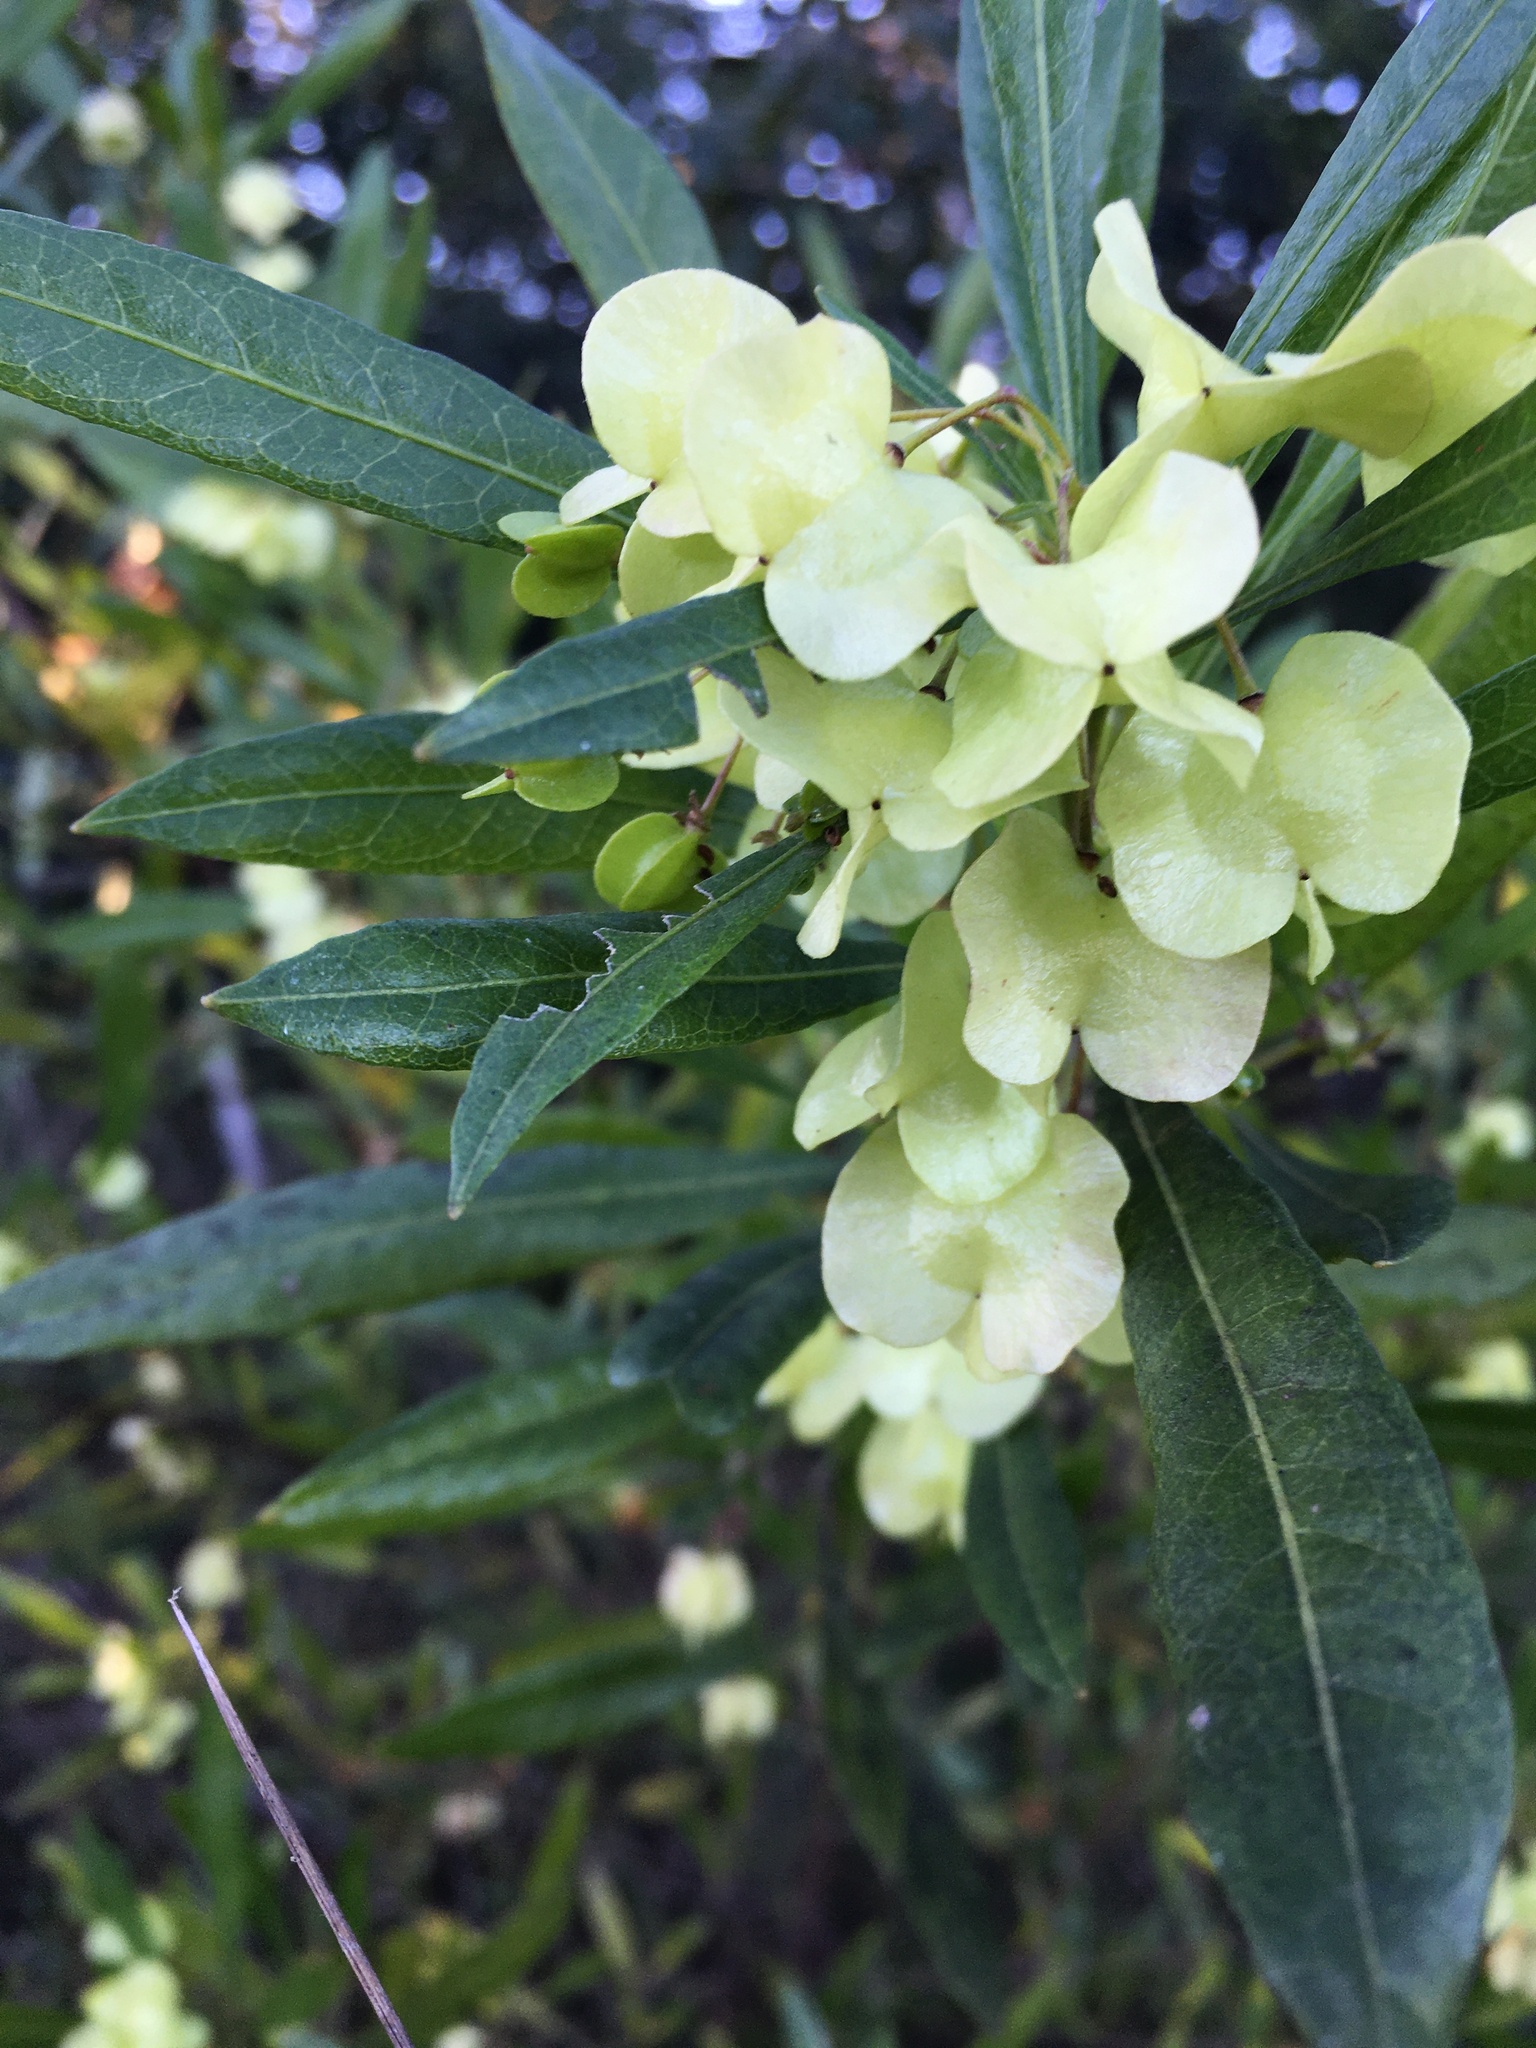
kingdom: Plantae
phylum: Tracheophyta
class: Magnoliopsida
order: Sapindales
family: Sapindaceae
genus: Dodonaea
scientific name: Dodonaea viscosa
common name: Hopbush
